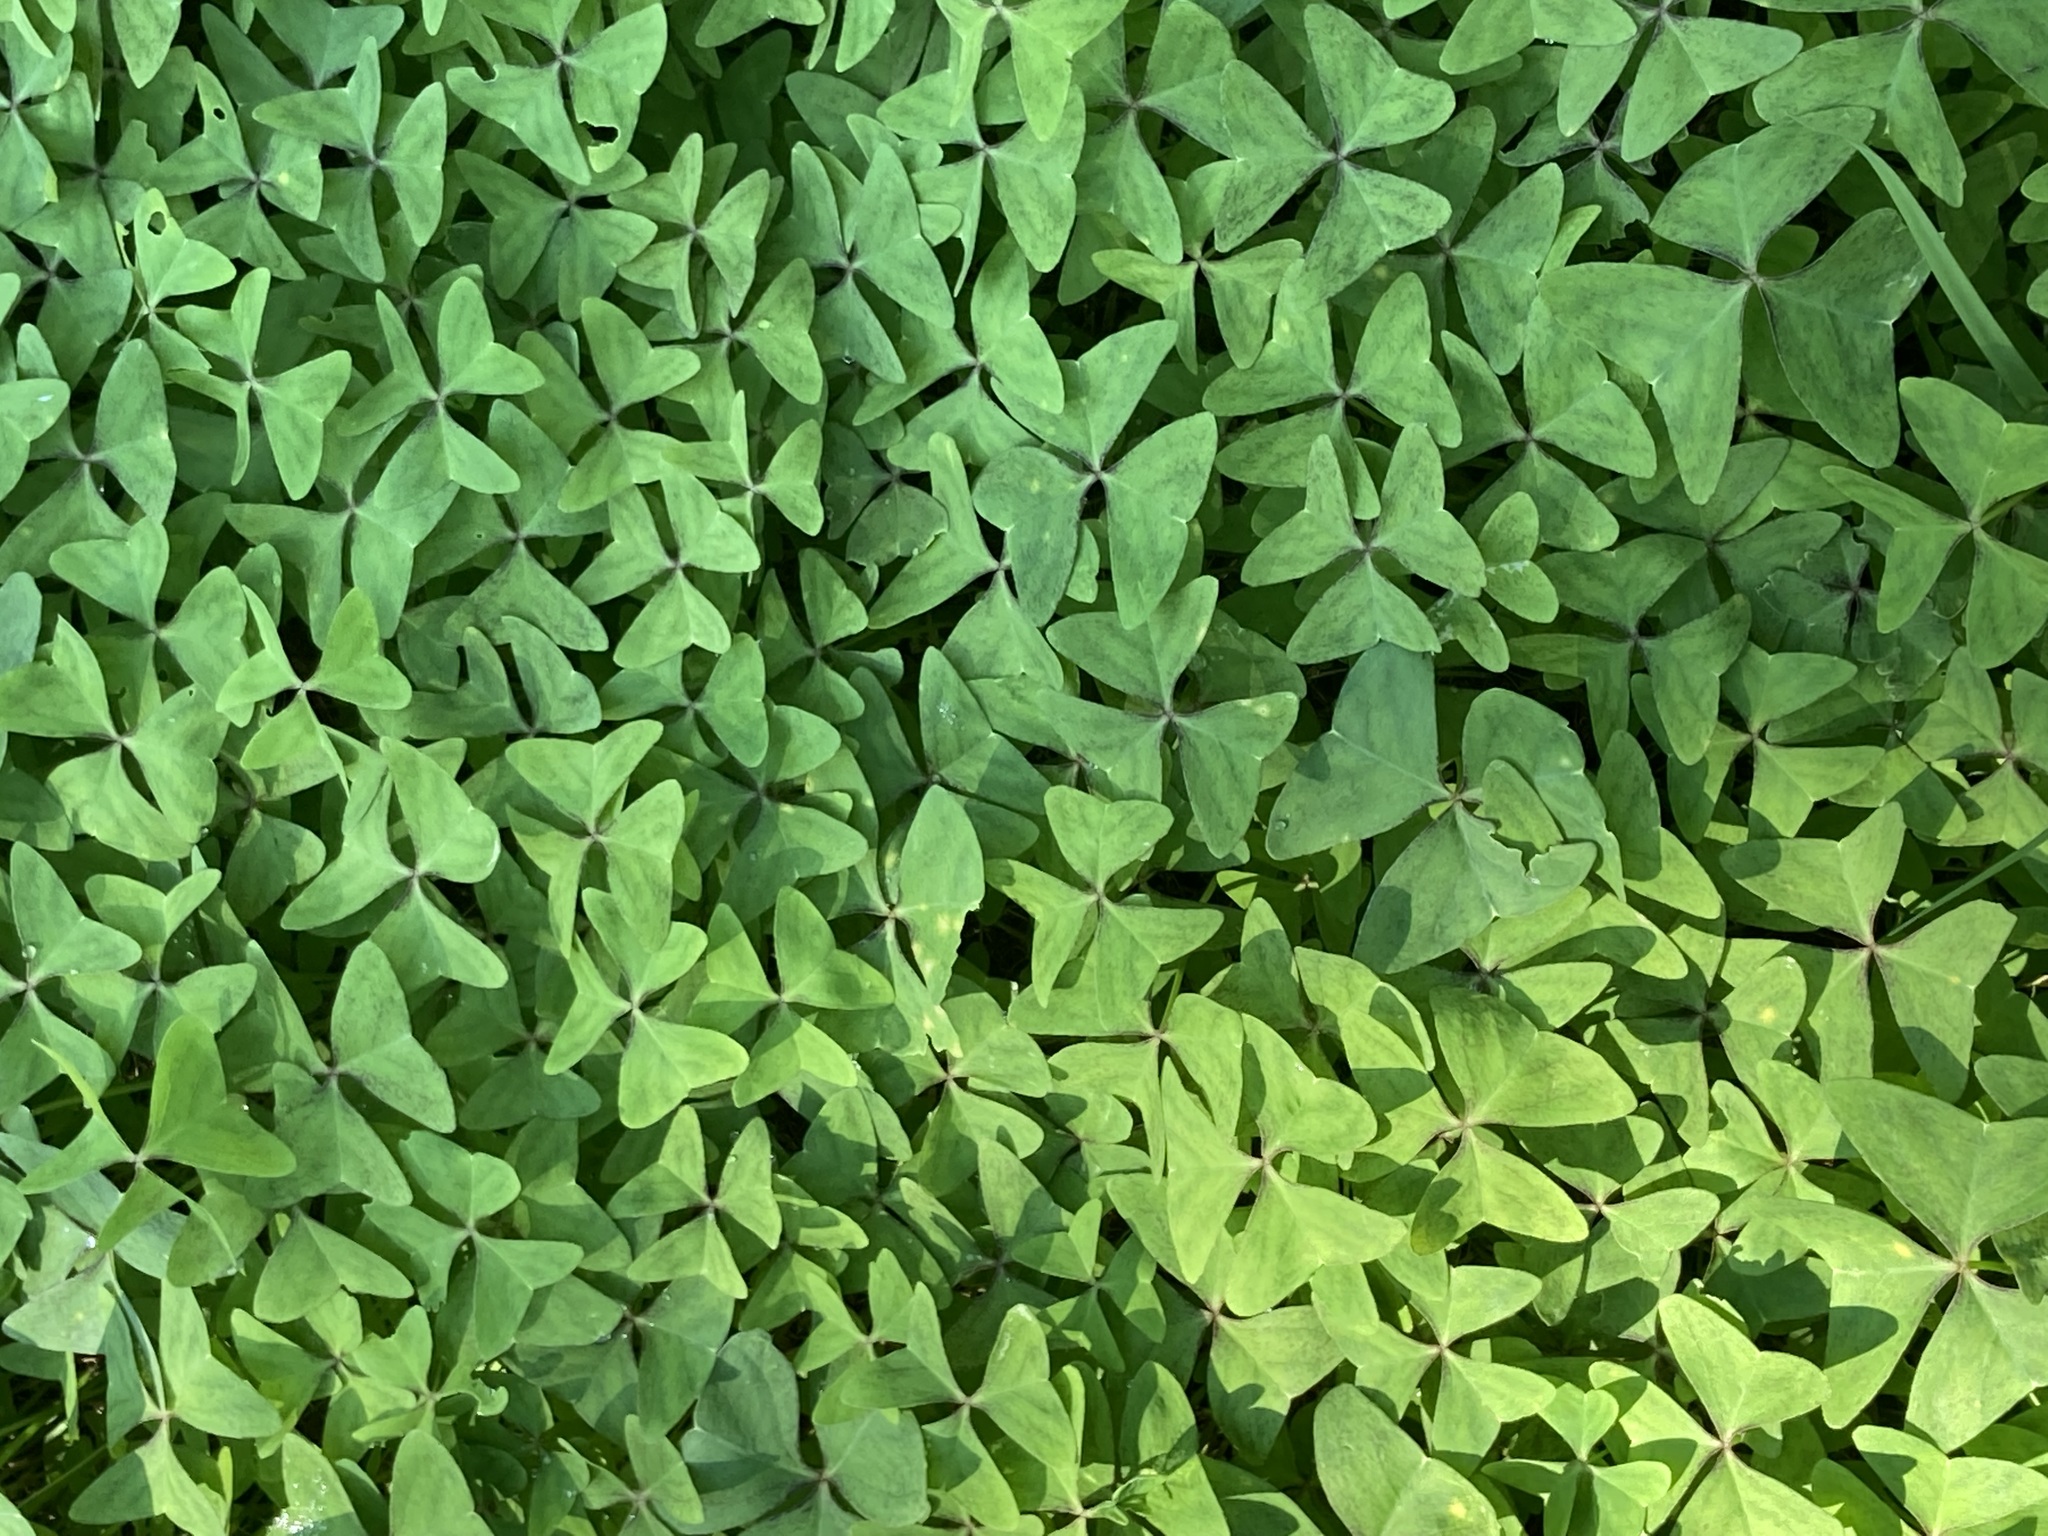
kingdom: Plantae
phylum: Tracheophyta
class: Magnoliopsida
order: Oxalidales
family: Oxalidaceae
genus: Oxalis
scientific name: Oxalis latifolia
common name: Garden pink-sorrel
